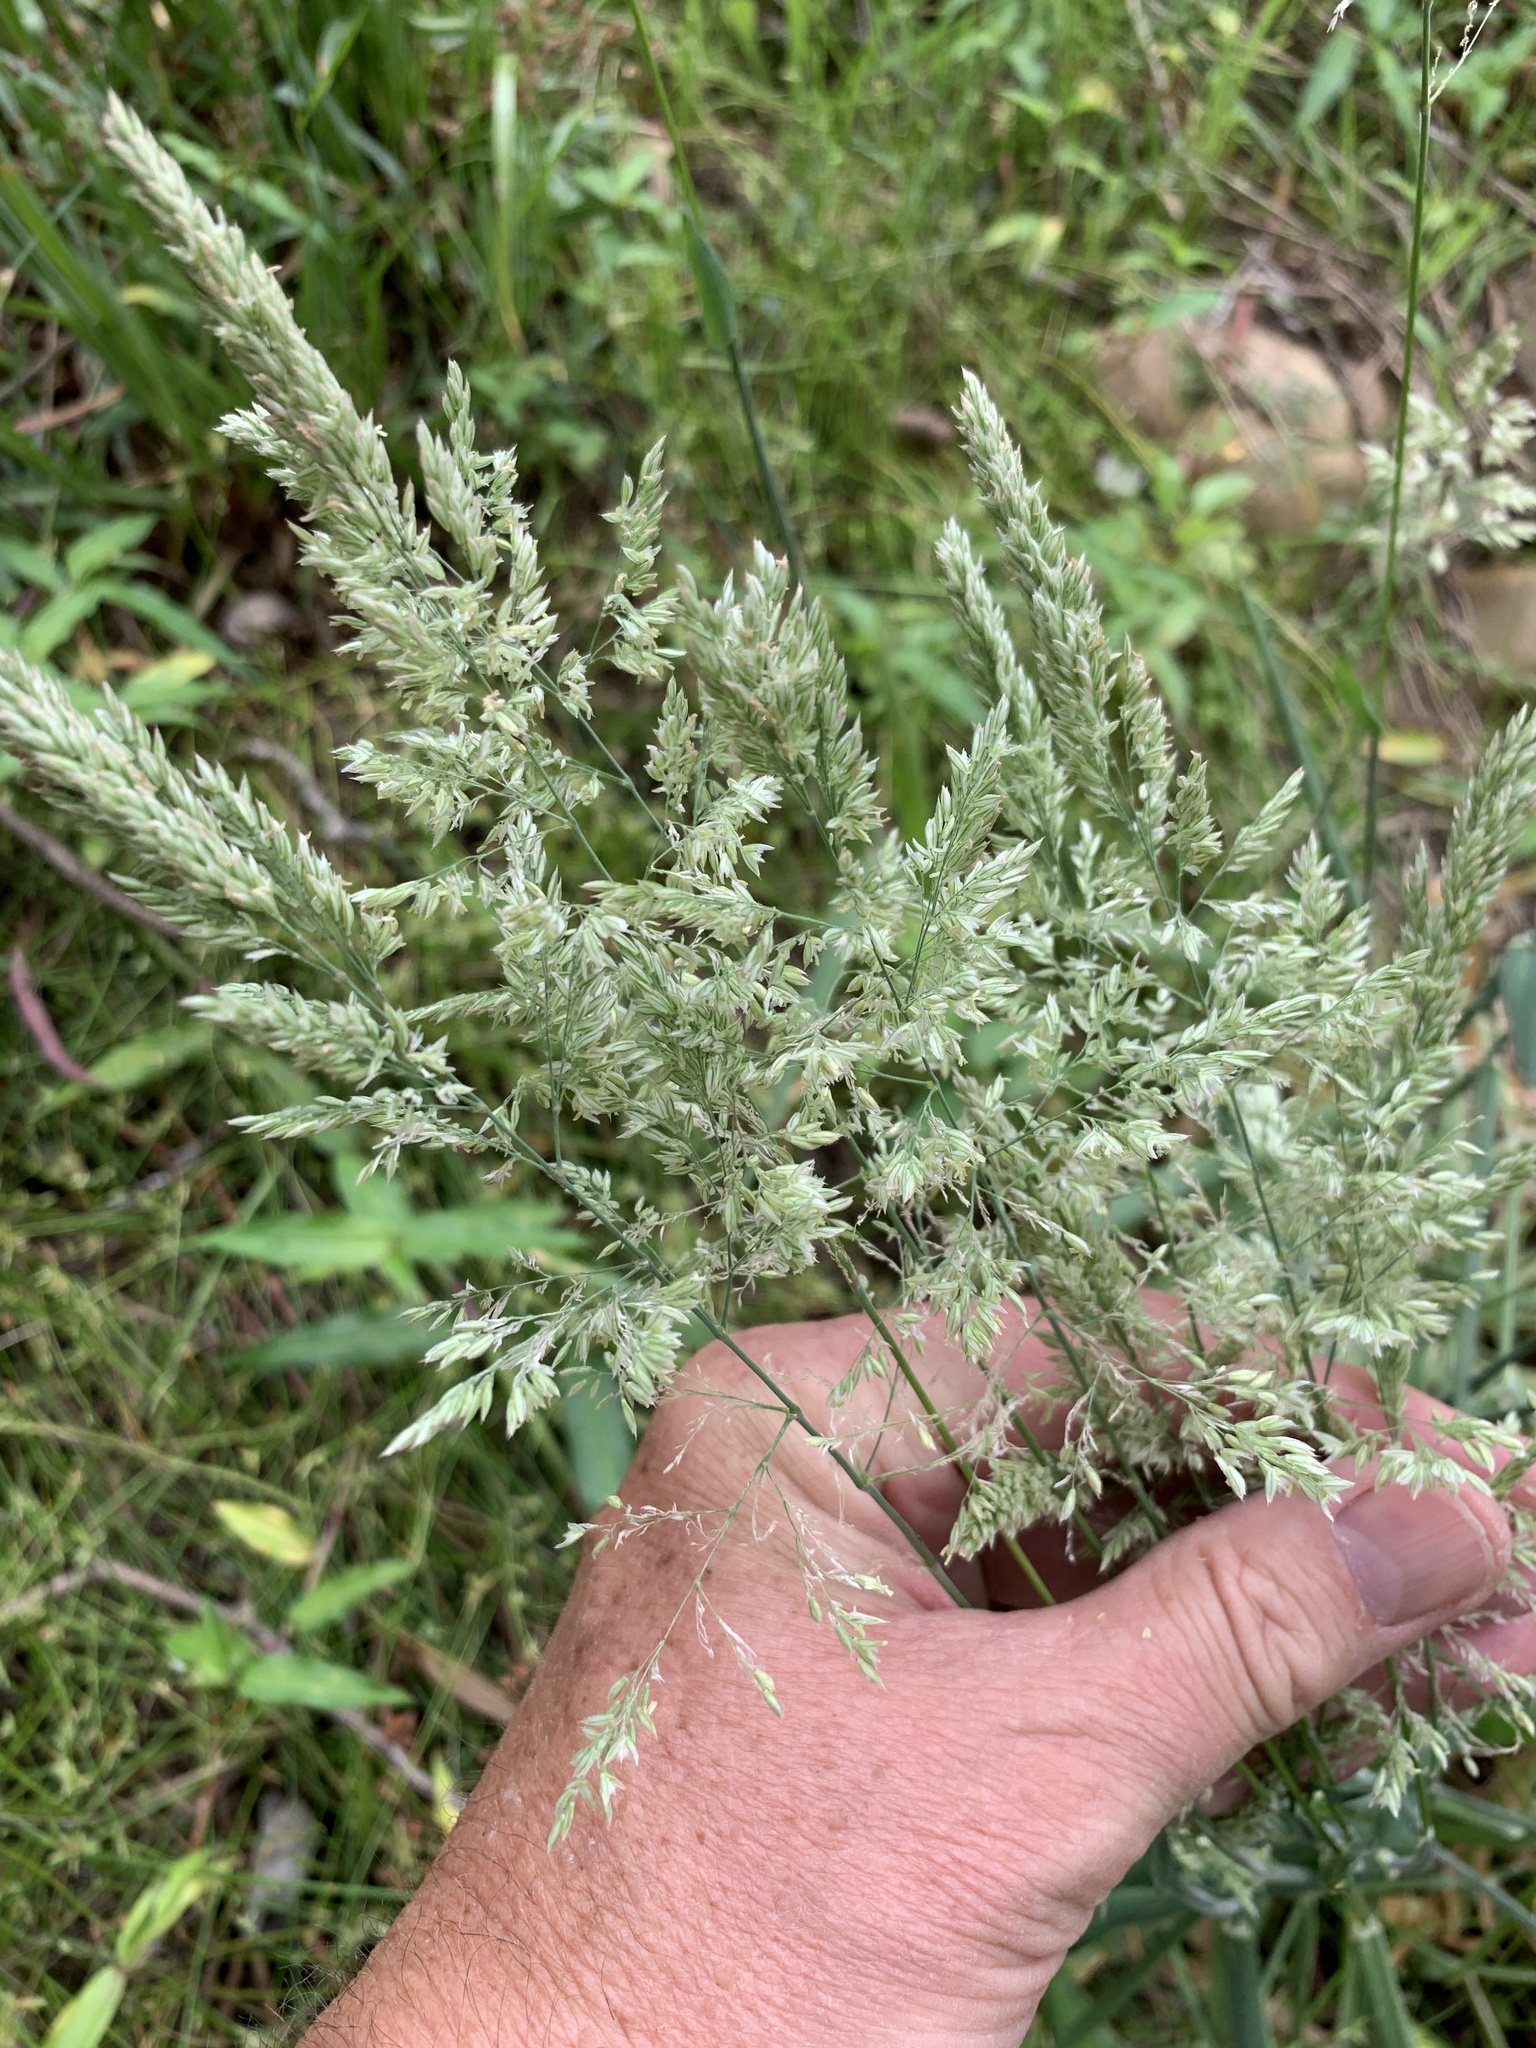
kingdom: Plantae
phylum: Tracheophyta
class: Liliopsida
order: Poales
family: Poaceae
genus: Holcus
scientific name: Holcus lanatus
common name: Yorkshire-fog
